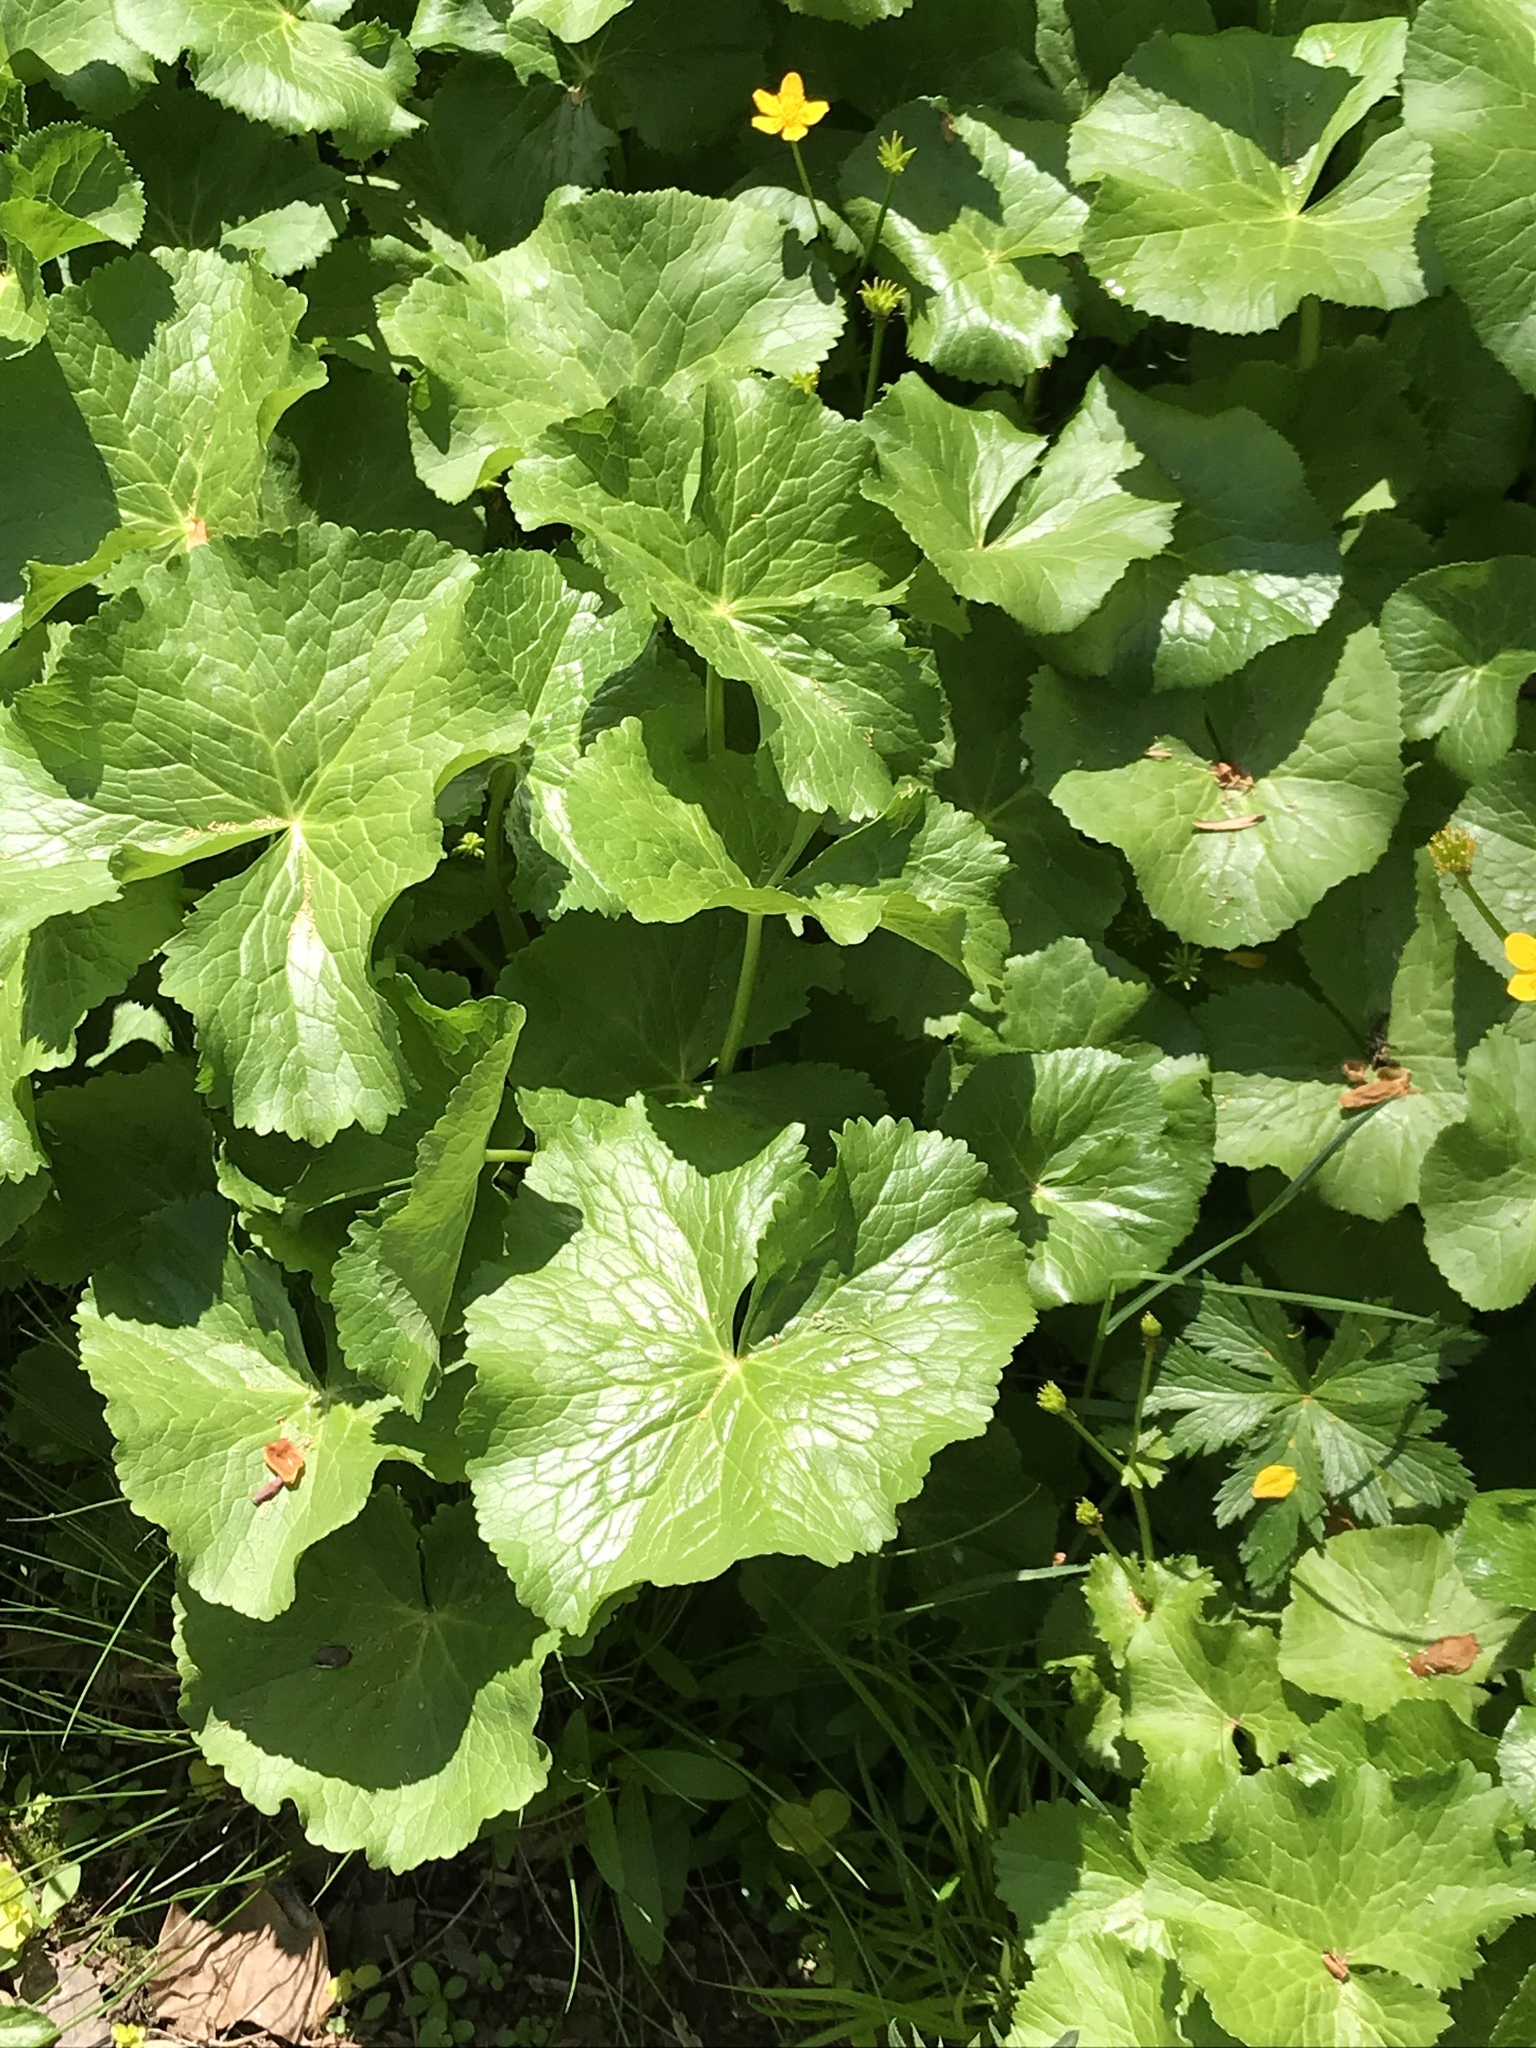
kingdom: Plantae
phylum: Tracheophyta
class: Magnoliopsida
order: Ranunculales
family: Ranunculaceae
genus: Caltha
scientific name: Caltha palustris
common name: Marsh marigold
